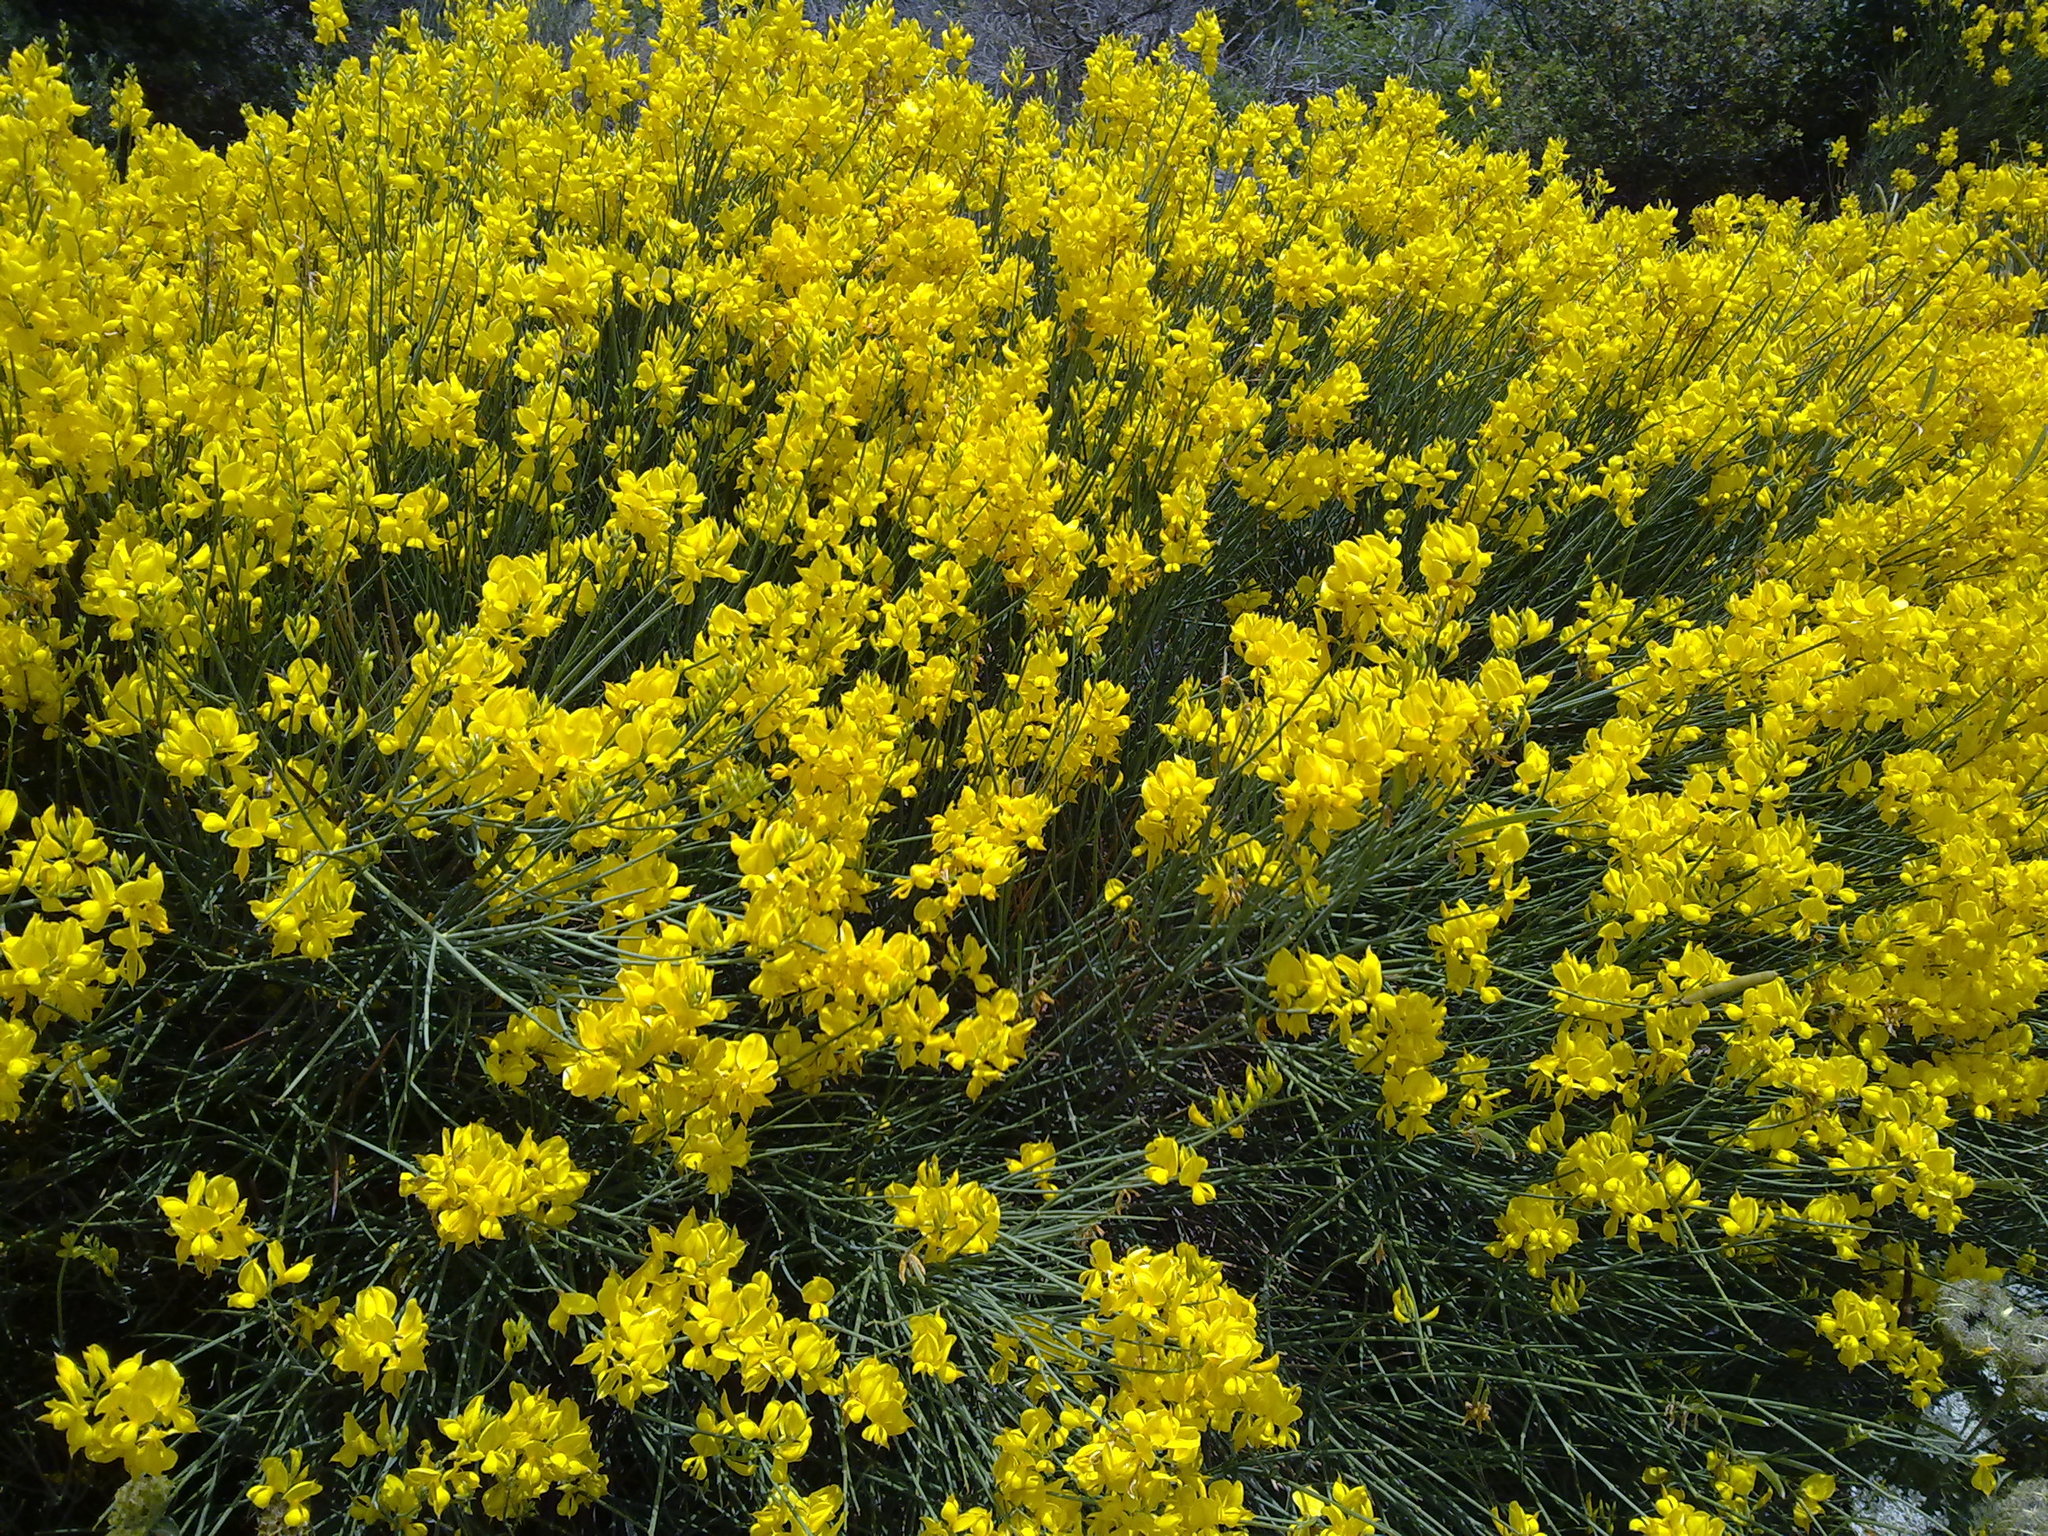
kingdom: Plantae
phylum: Tracheophyta
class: Magnoliopsida
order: Fabales
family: Fabaceae
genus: Spartium
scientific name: Spartium junceum
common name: Spanish broom
